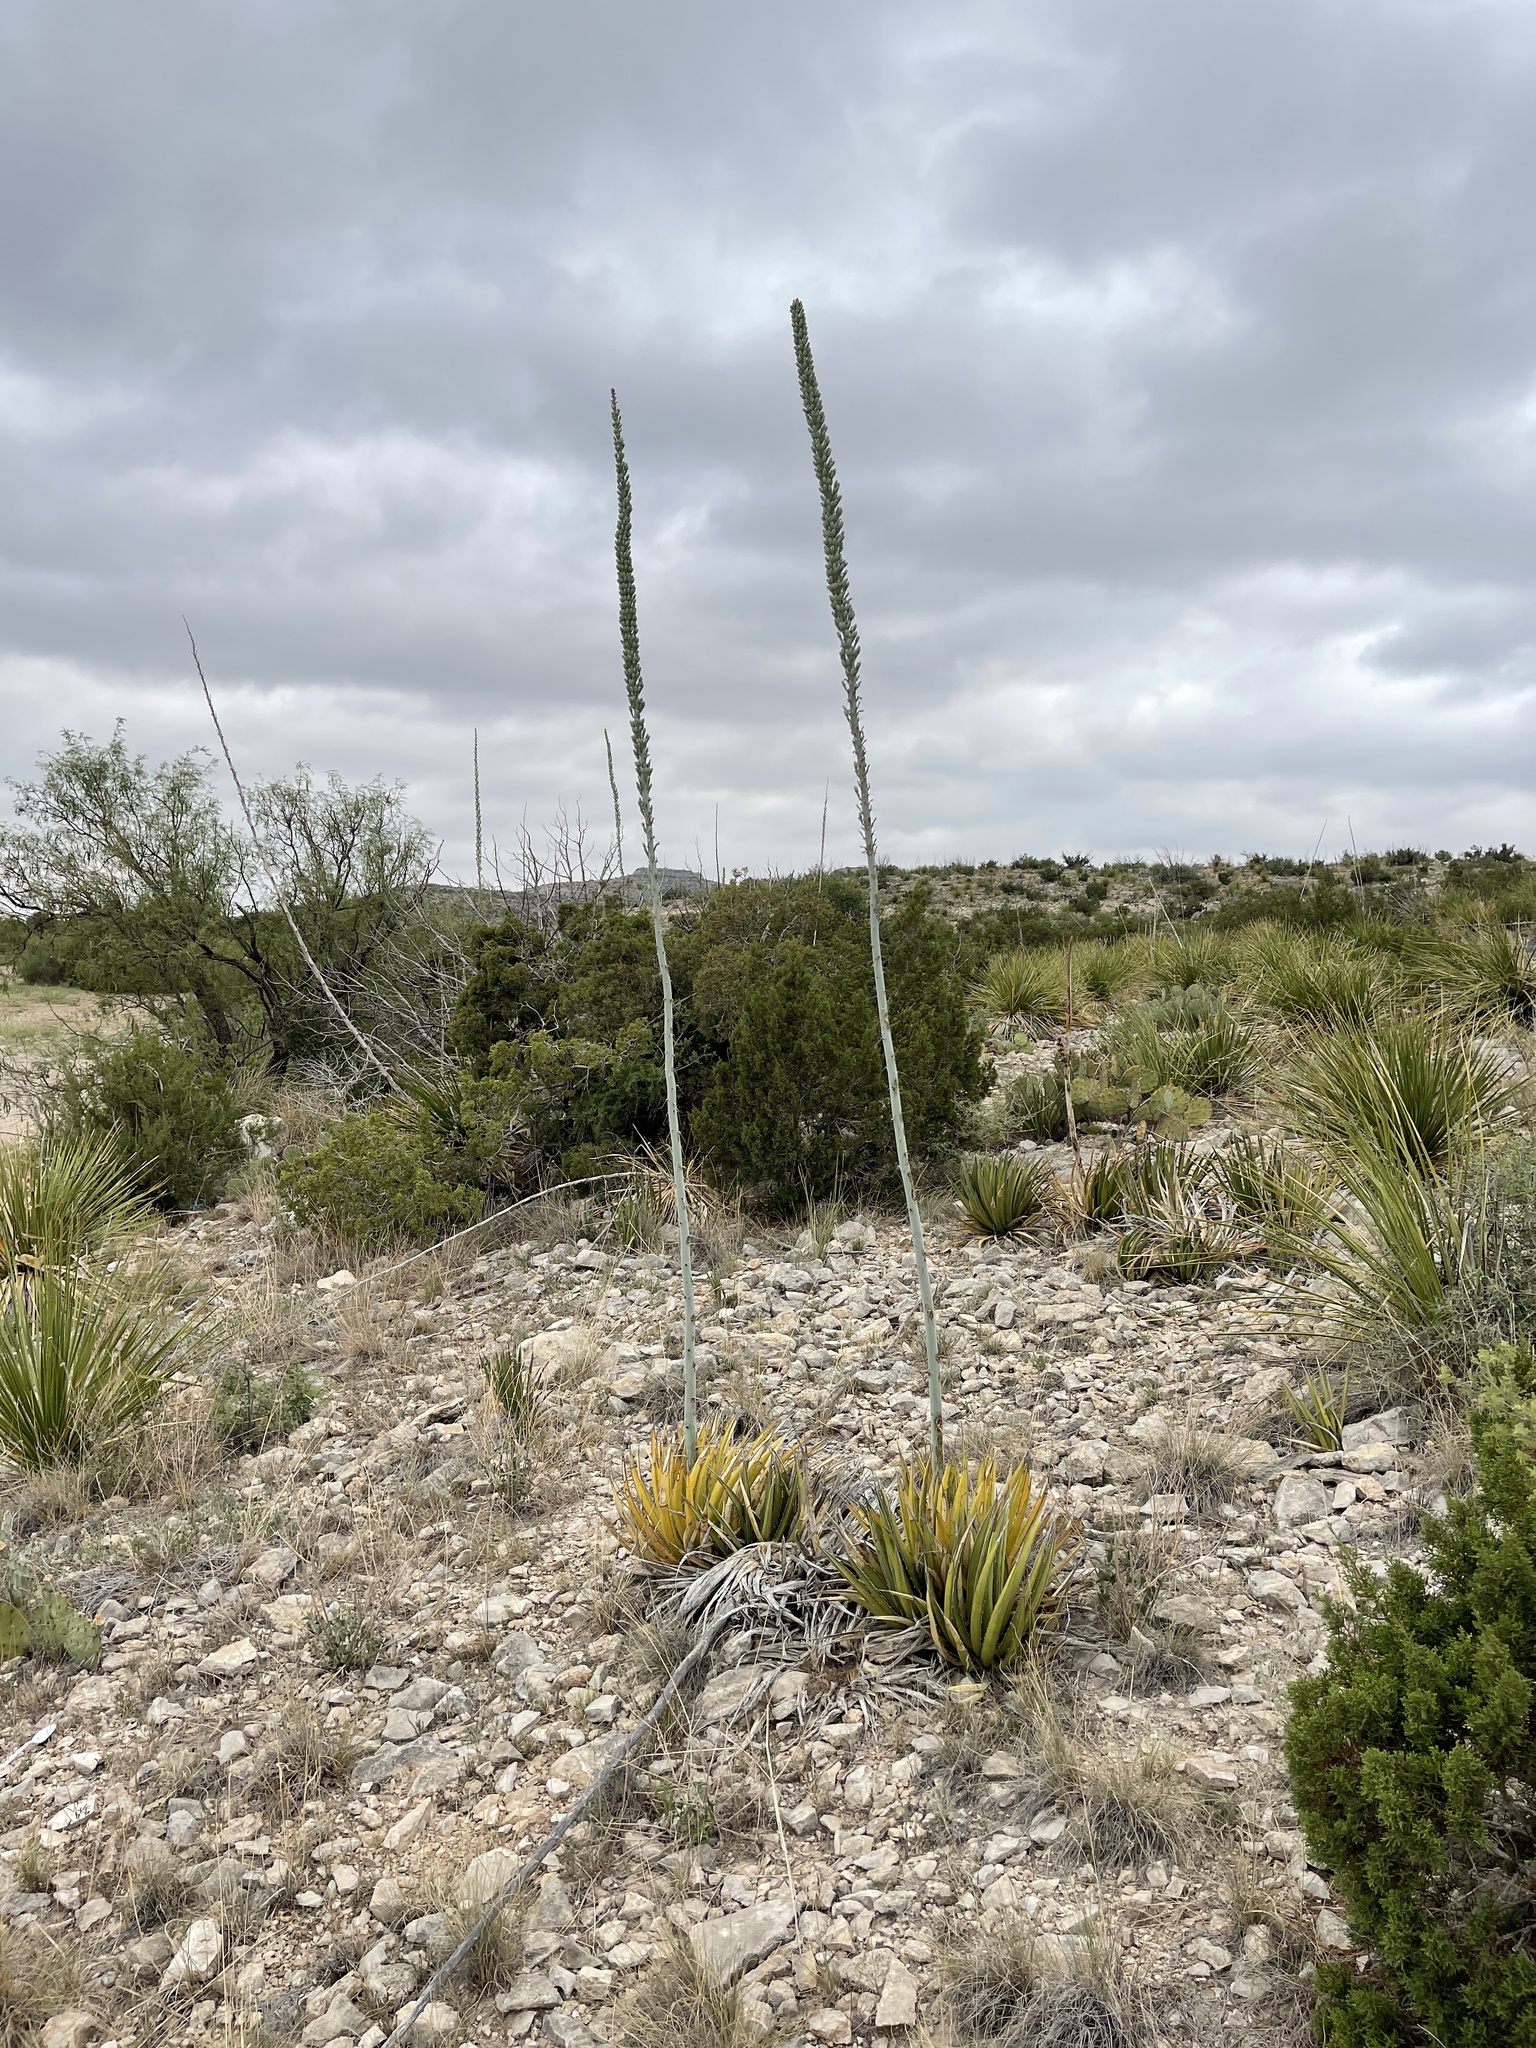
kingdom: Plantae
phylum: Tracheophyta
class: Liliopsida
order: Asparagales
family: Asparagaceae
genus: Agave
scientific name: Agave lechuguilla
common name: Lecheguilla agave
